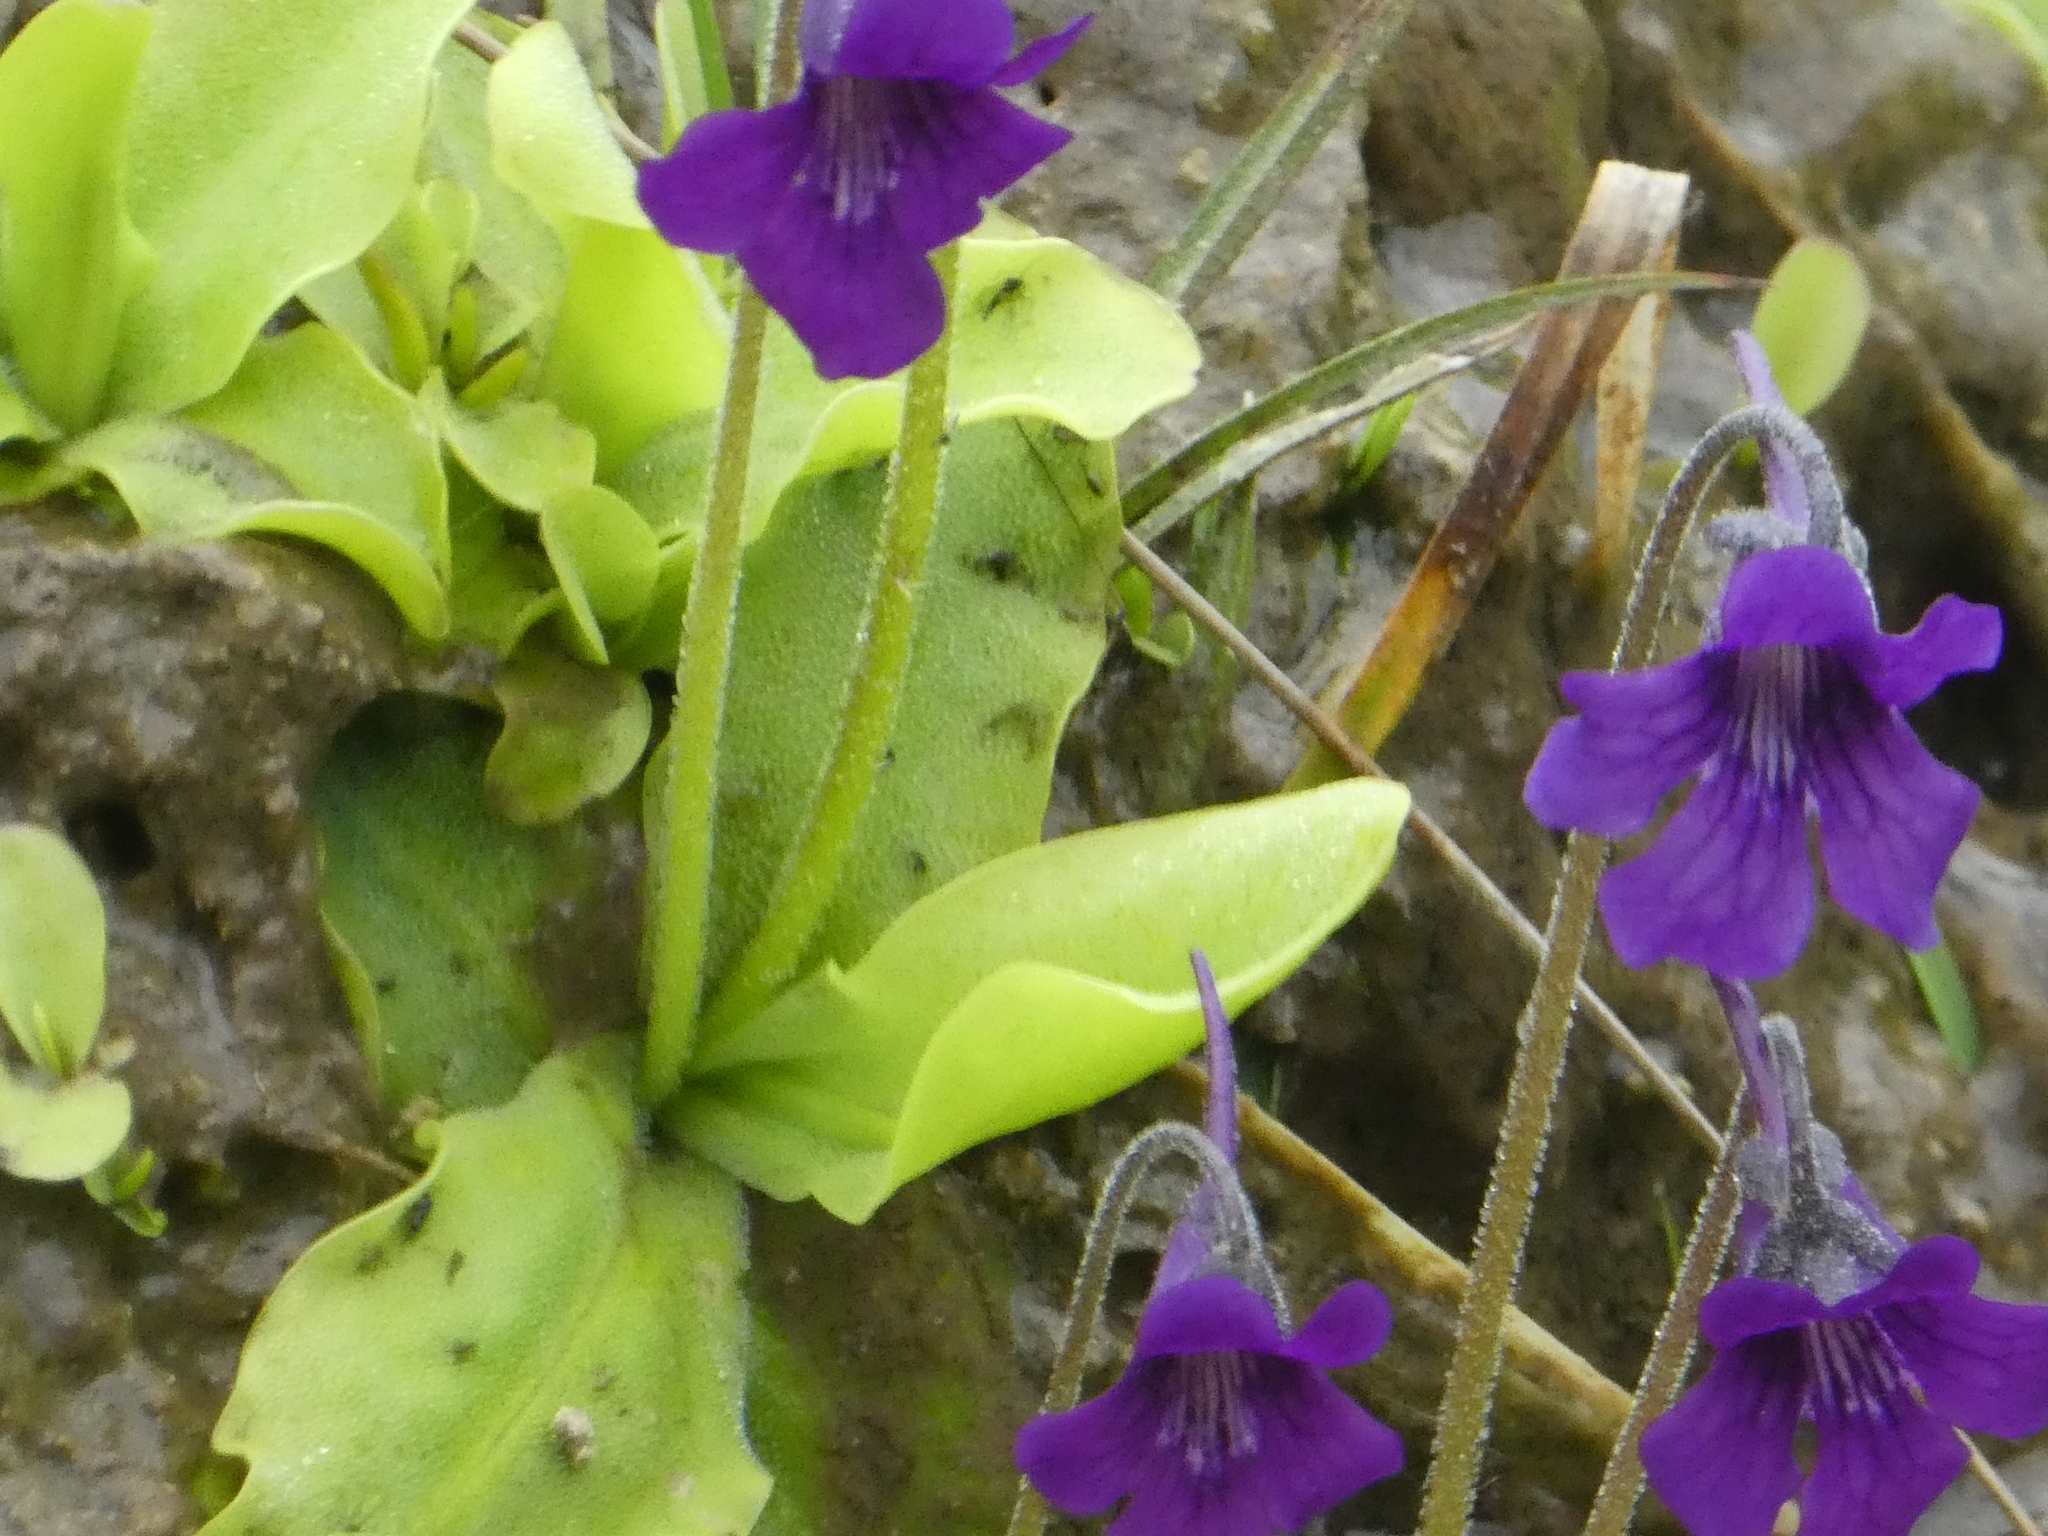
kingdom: Plantae
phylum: Tracheophyta
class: Magnoliopsida
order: Lamiales
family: Lentibulariaceae
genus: Pinguicula
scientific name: Pinguicula grandiflora
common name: Large-flowered butterwort
